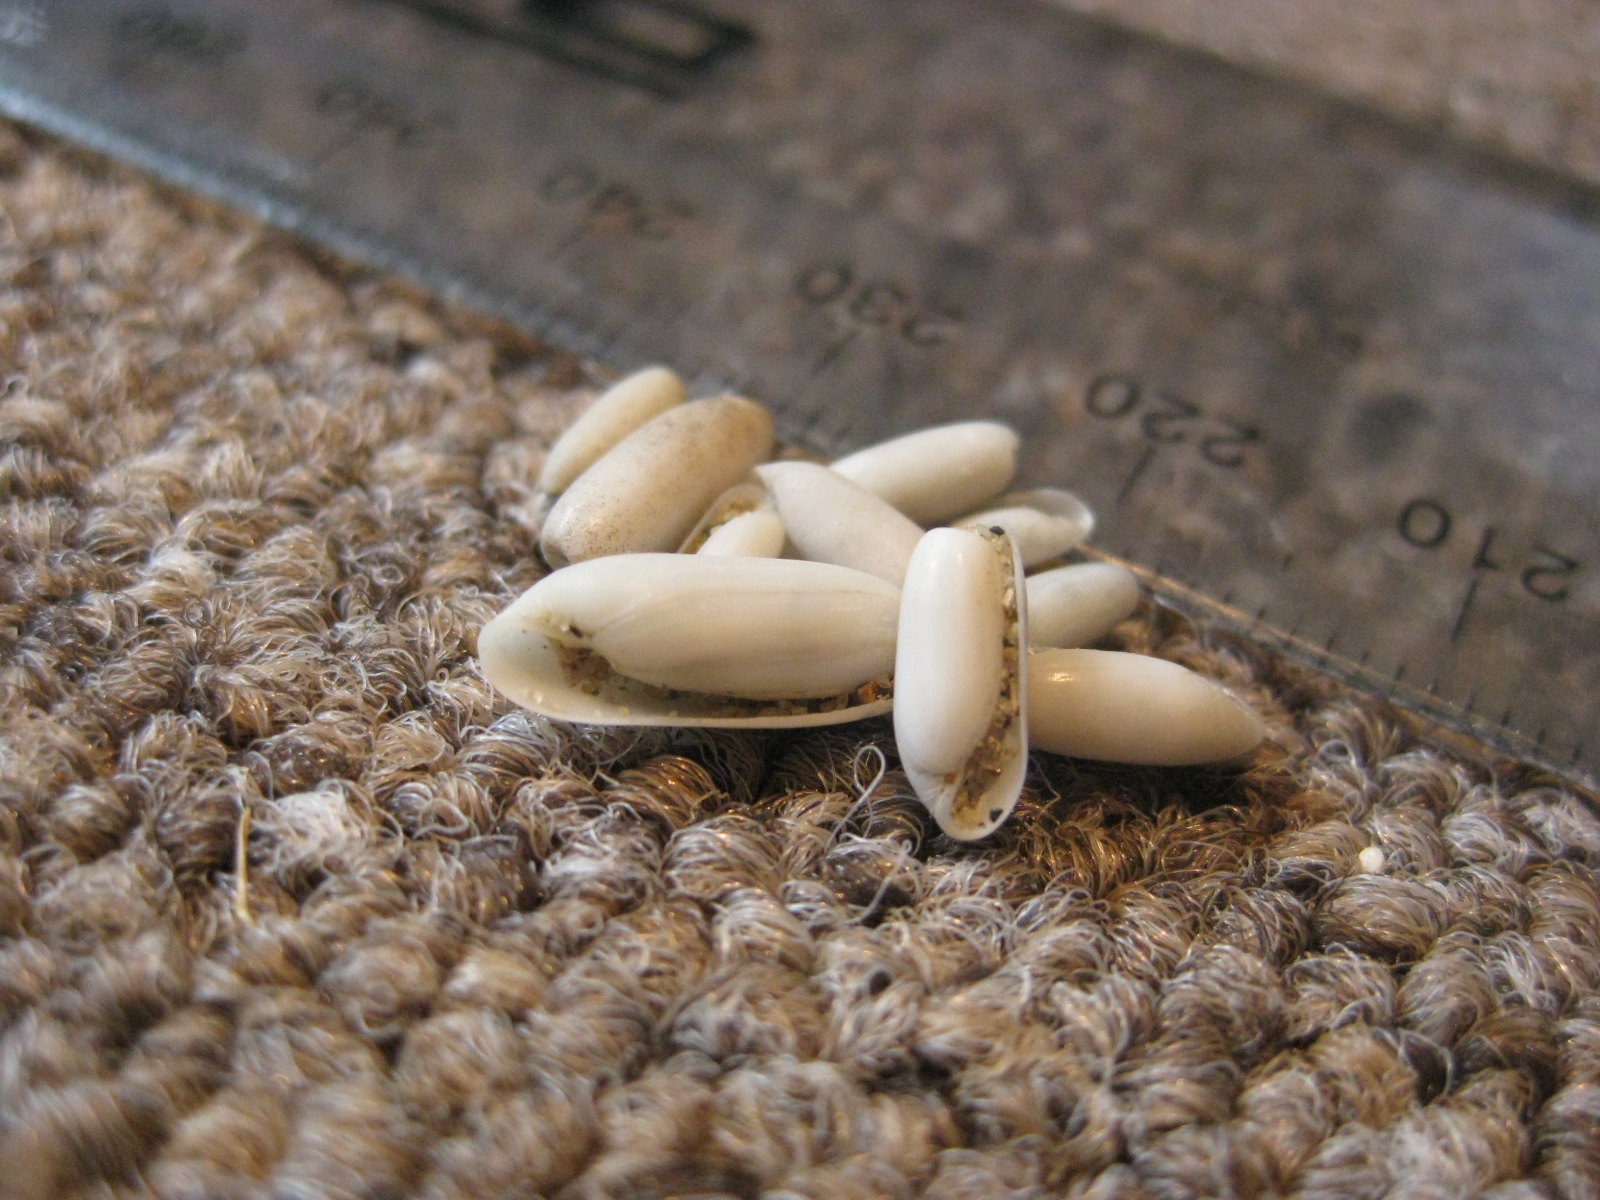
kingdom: Animalia
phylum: Mollusca
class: Gastropoda
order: Cephalaspidea
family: Cylichnidae
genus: Cylichna
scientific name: Cylichna zealandica
